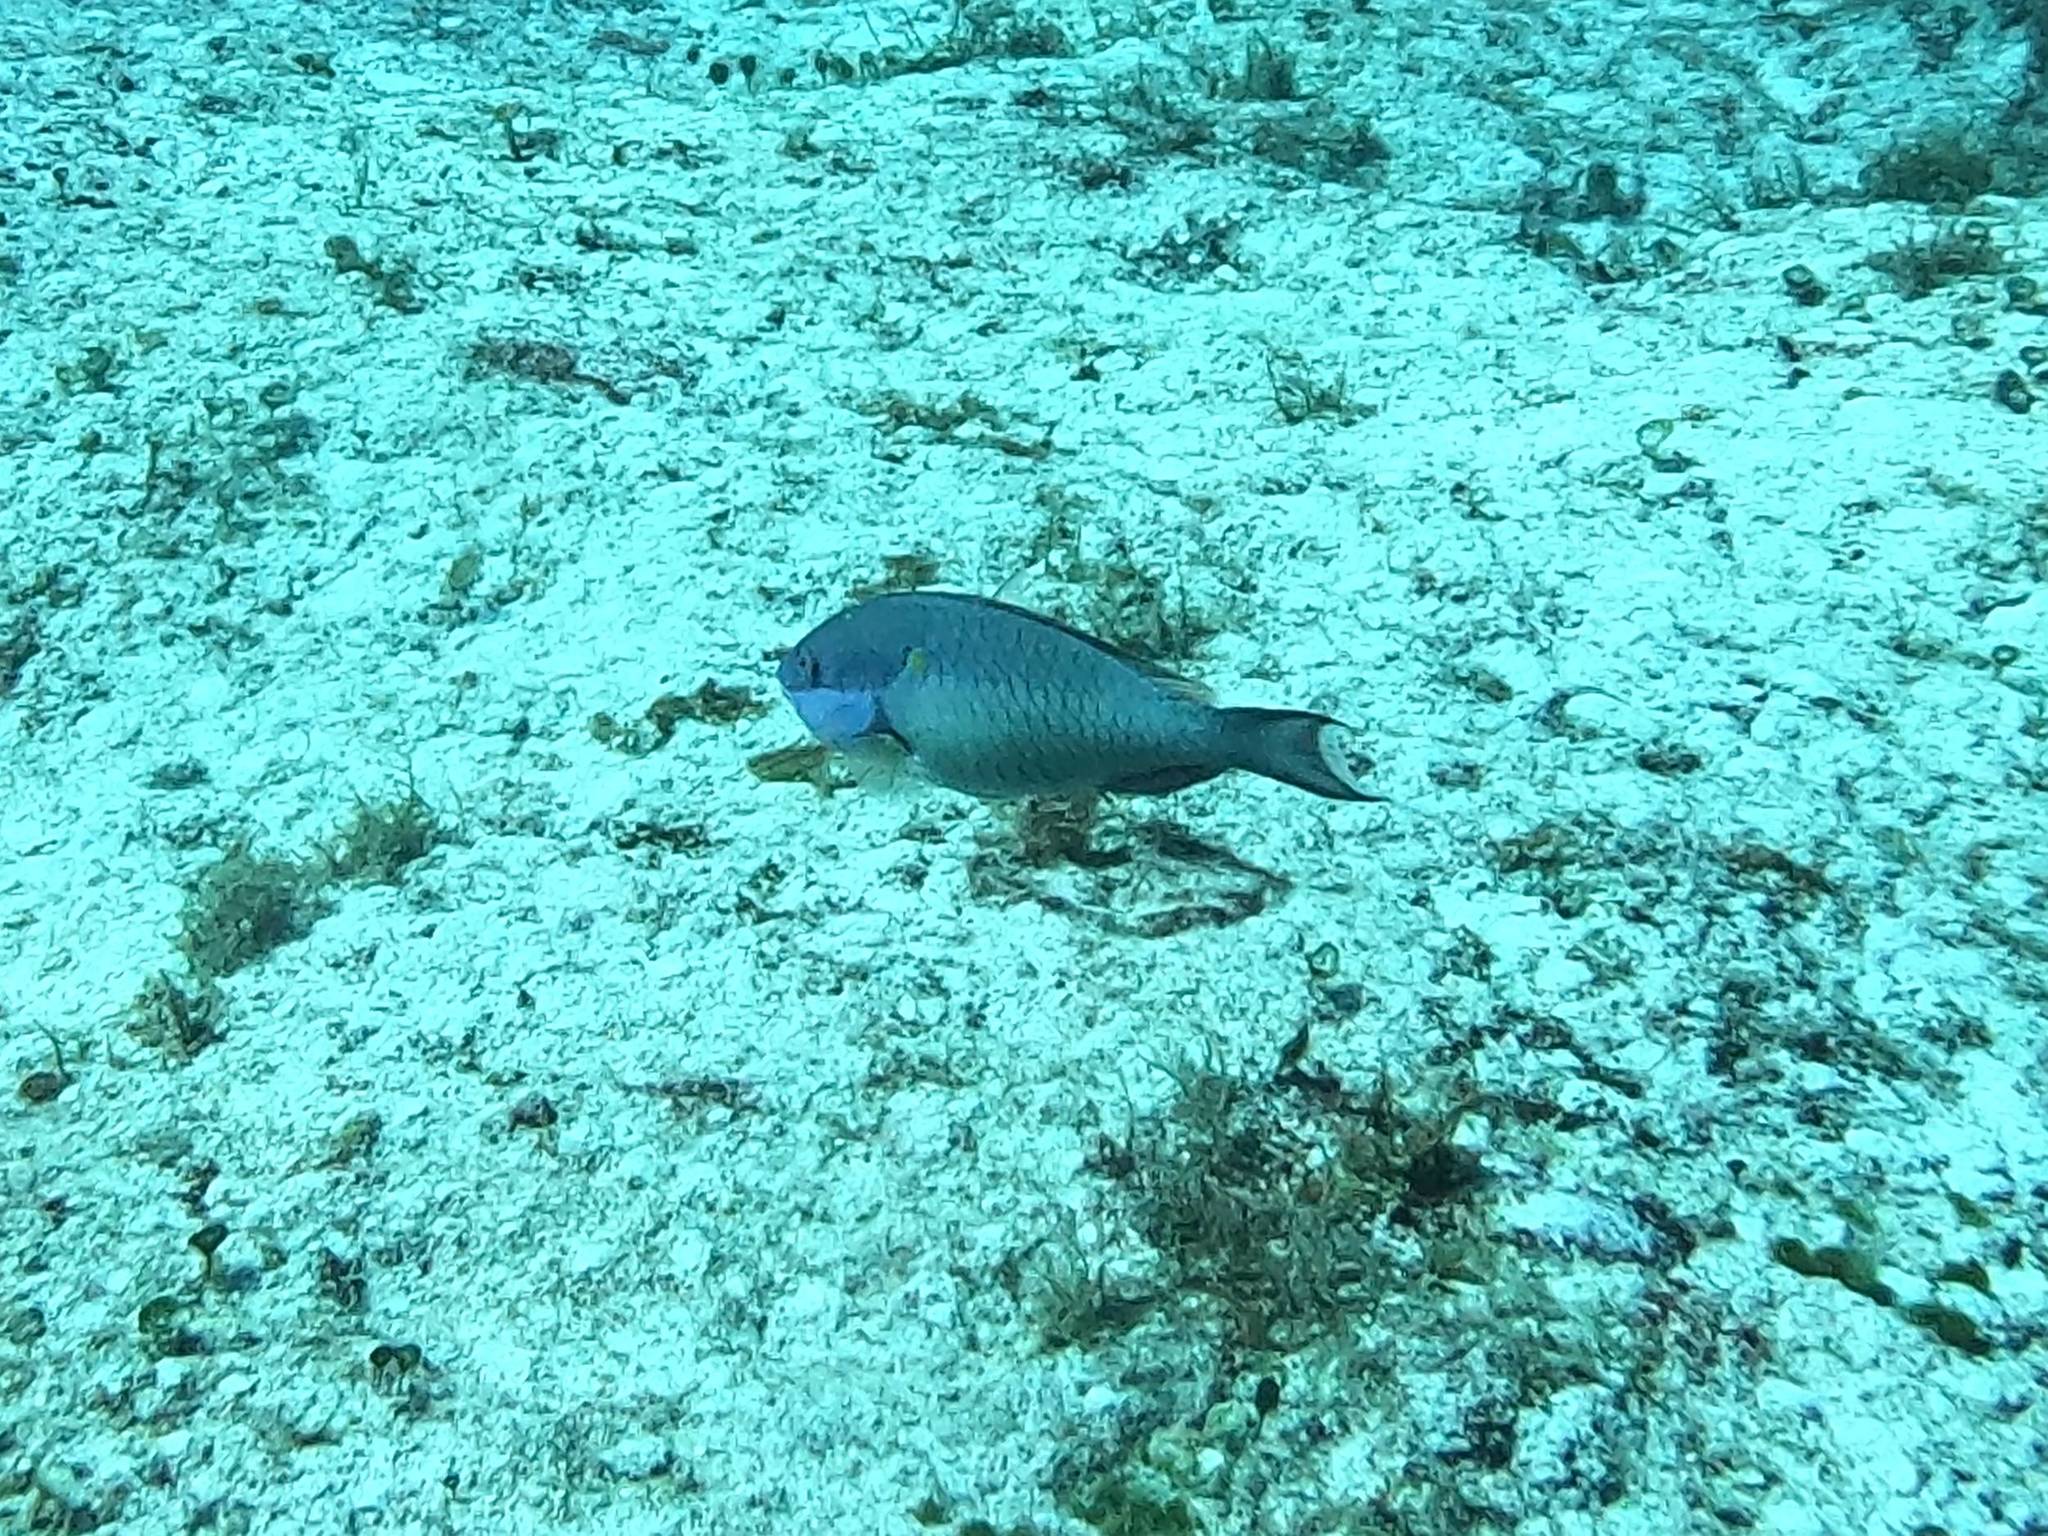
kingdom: Animalia
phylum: Chordata
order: Perciformes
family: Scaridae
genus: Sparisoma
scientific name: Sparisoma aurofrenatum
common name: Redband parrotfish
